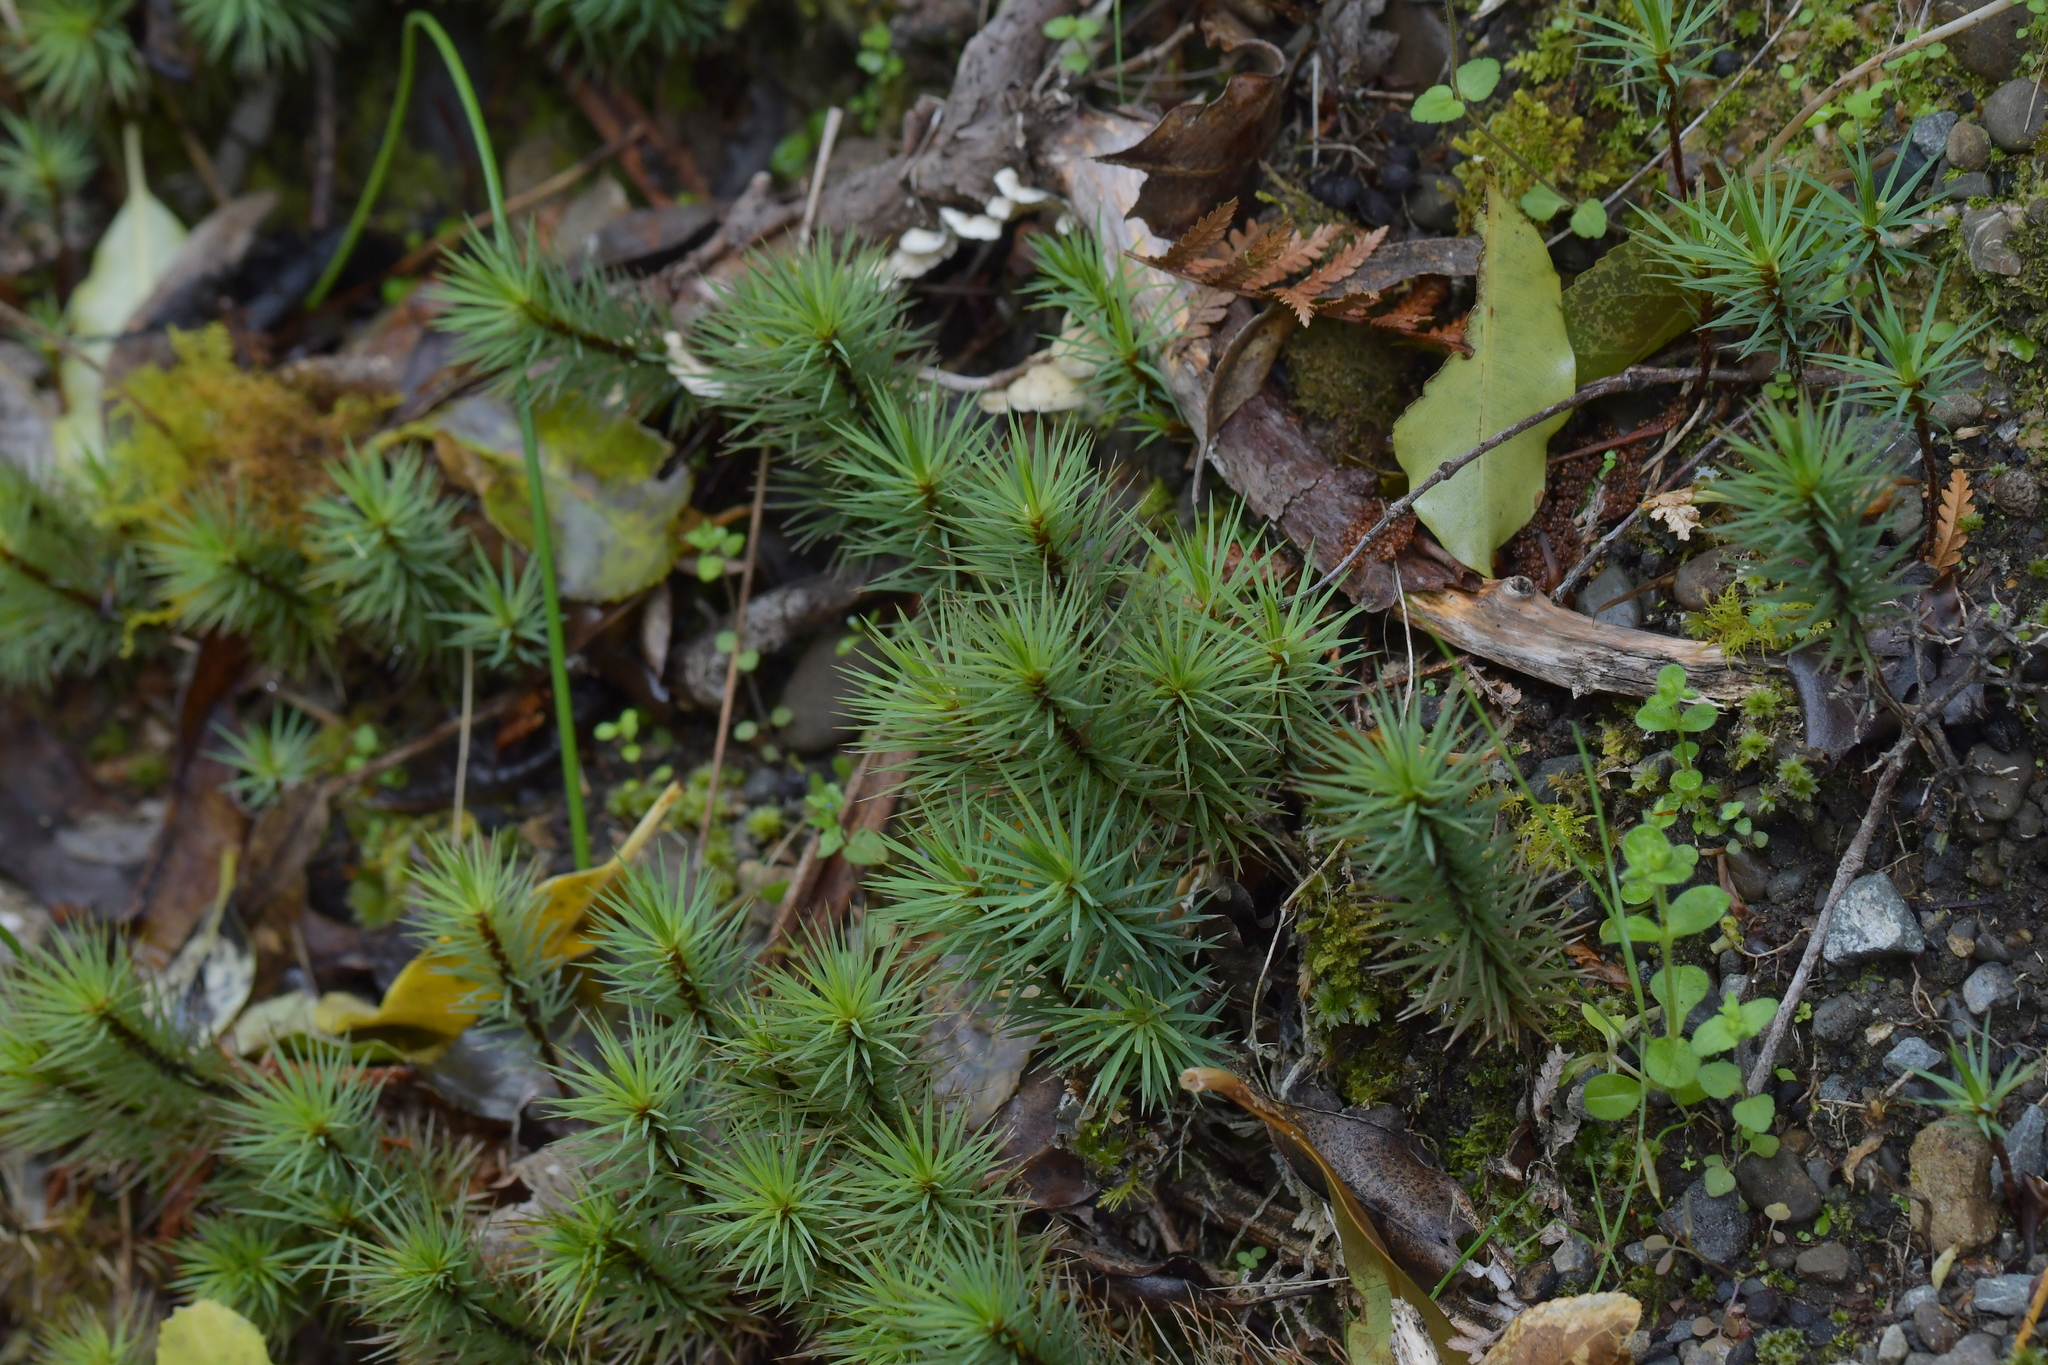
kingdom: Plantae
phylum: Bryophyta
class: Polytrichopsida
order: Polytrichales
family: Polytrichaceae
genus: Dawsonia
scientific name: Dawsonia superba
